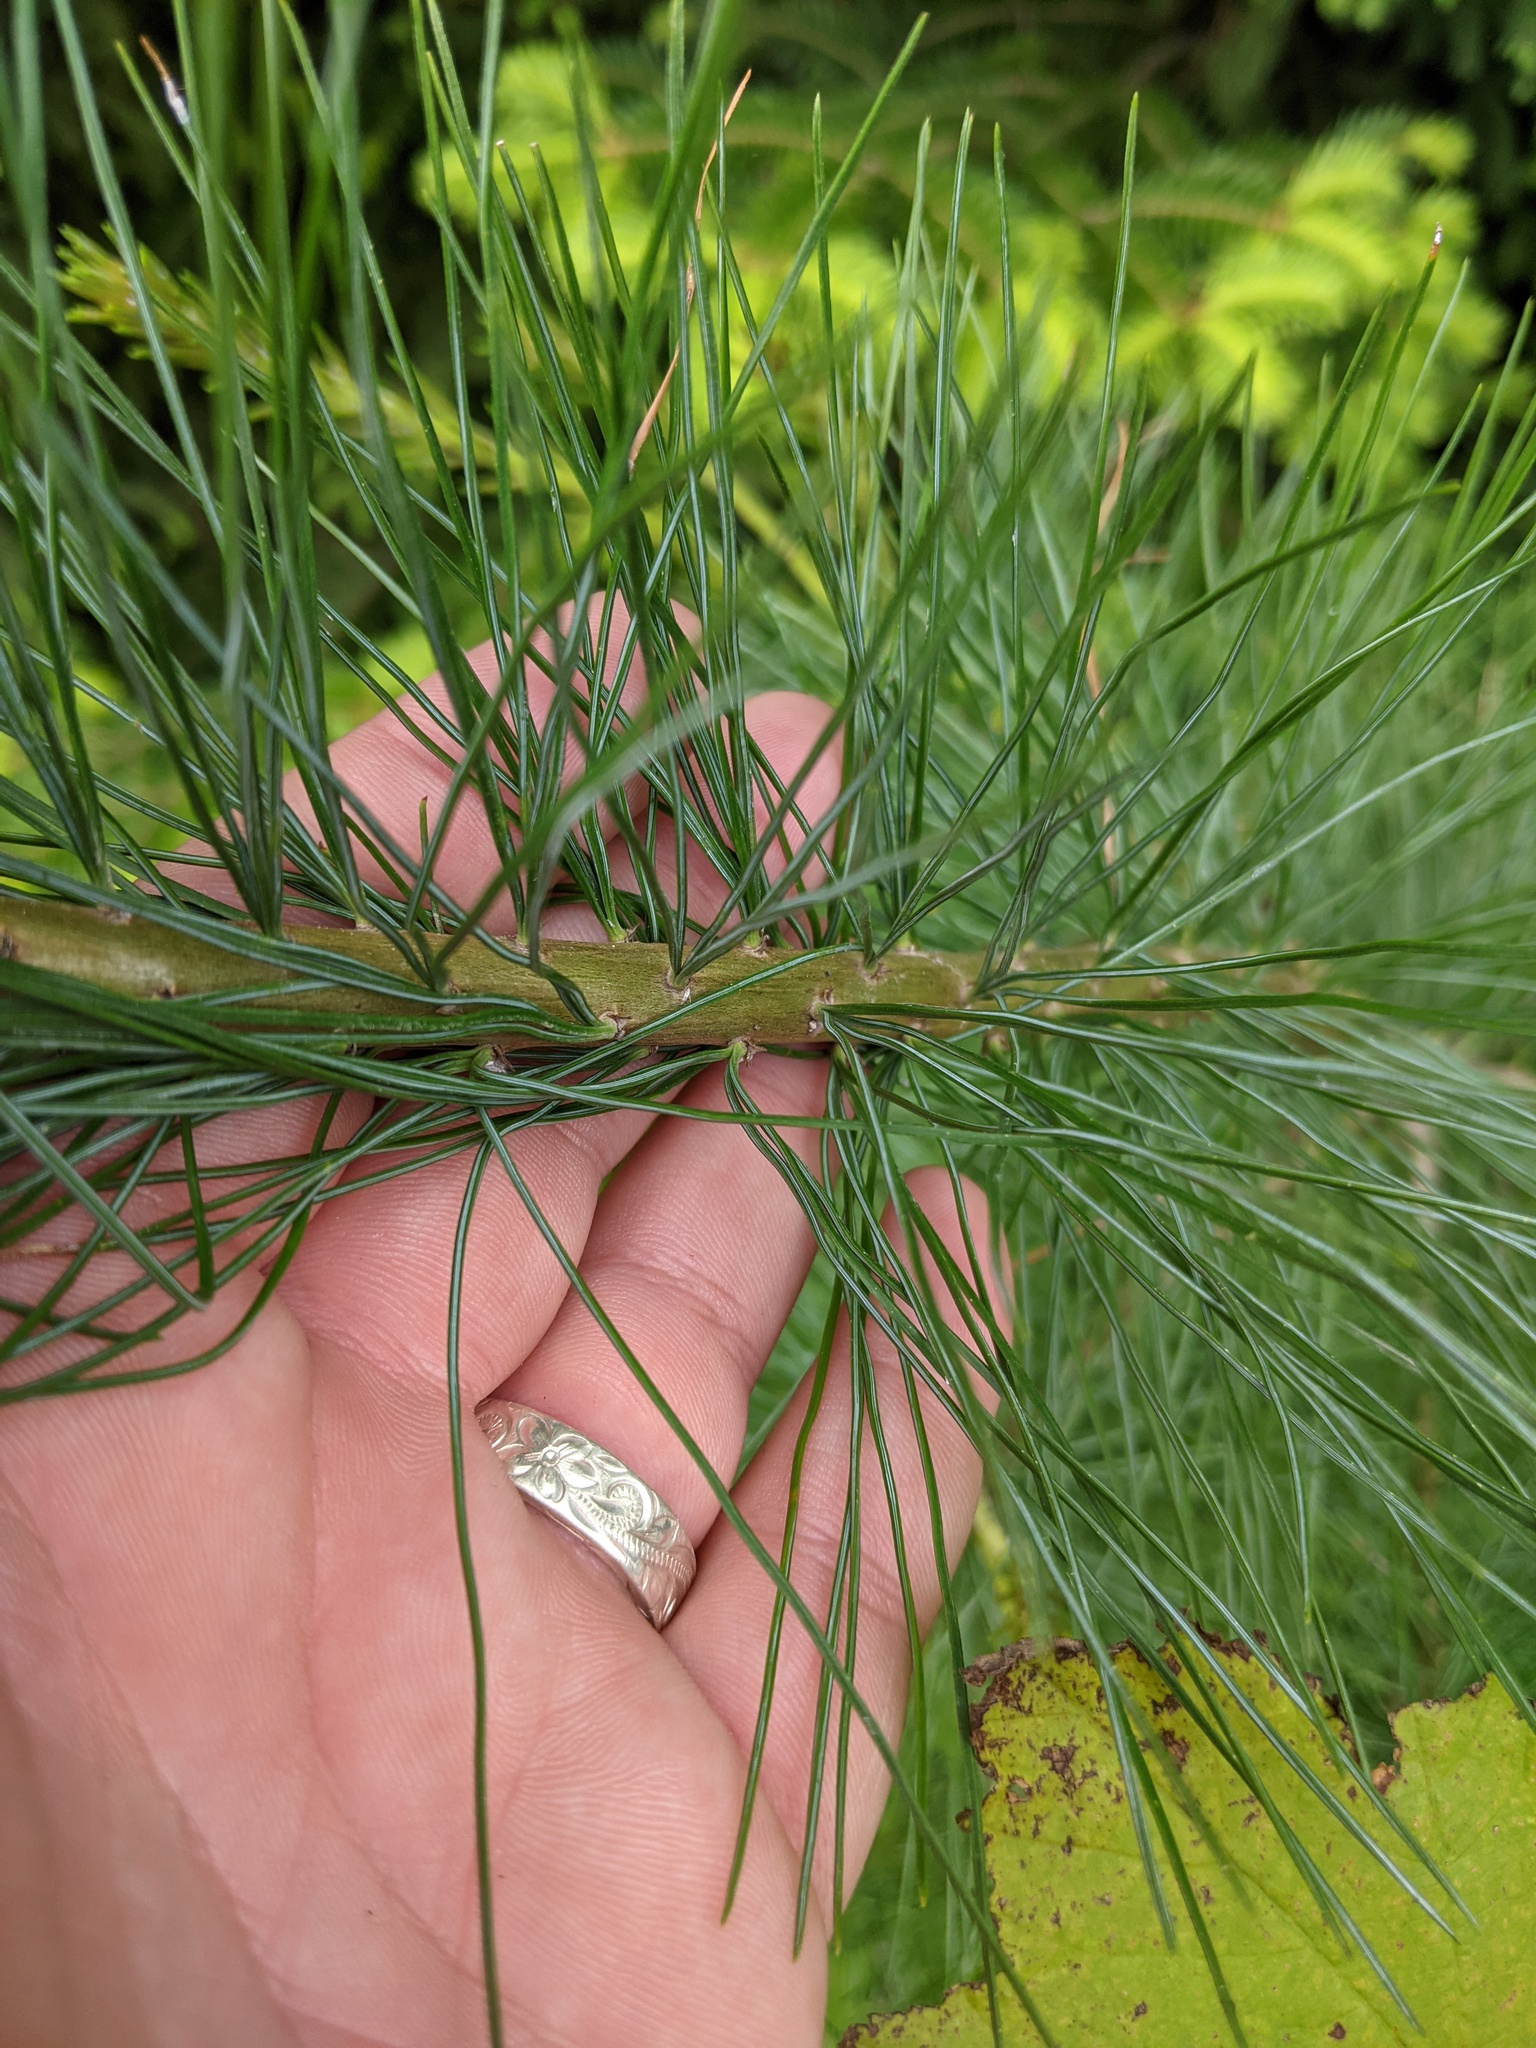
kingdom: Plantae
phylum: Tracheophyta
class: Pinopsida
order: Pinales
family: Pinaceae
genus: Pinus
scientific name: Pinus strobus
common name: Weymouth pine
